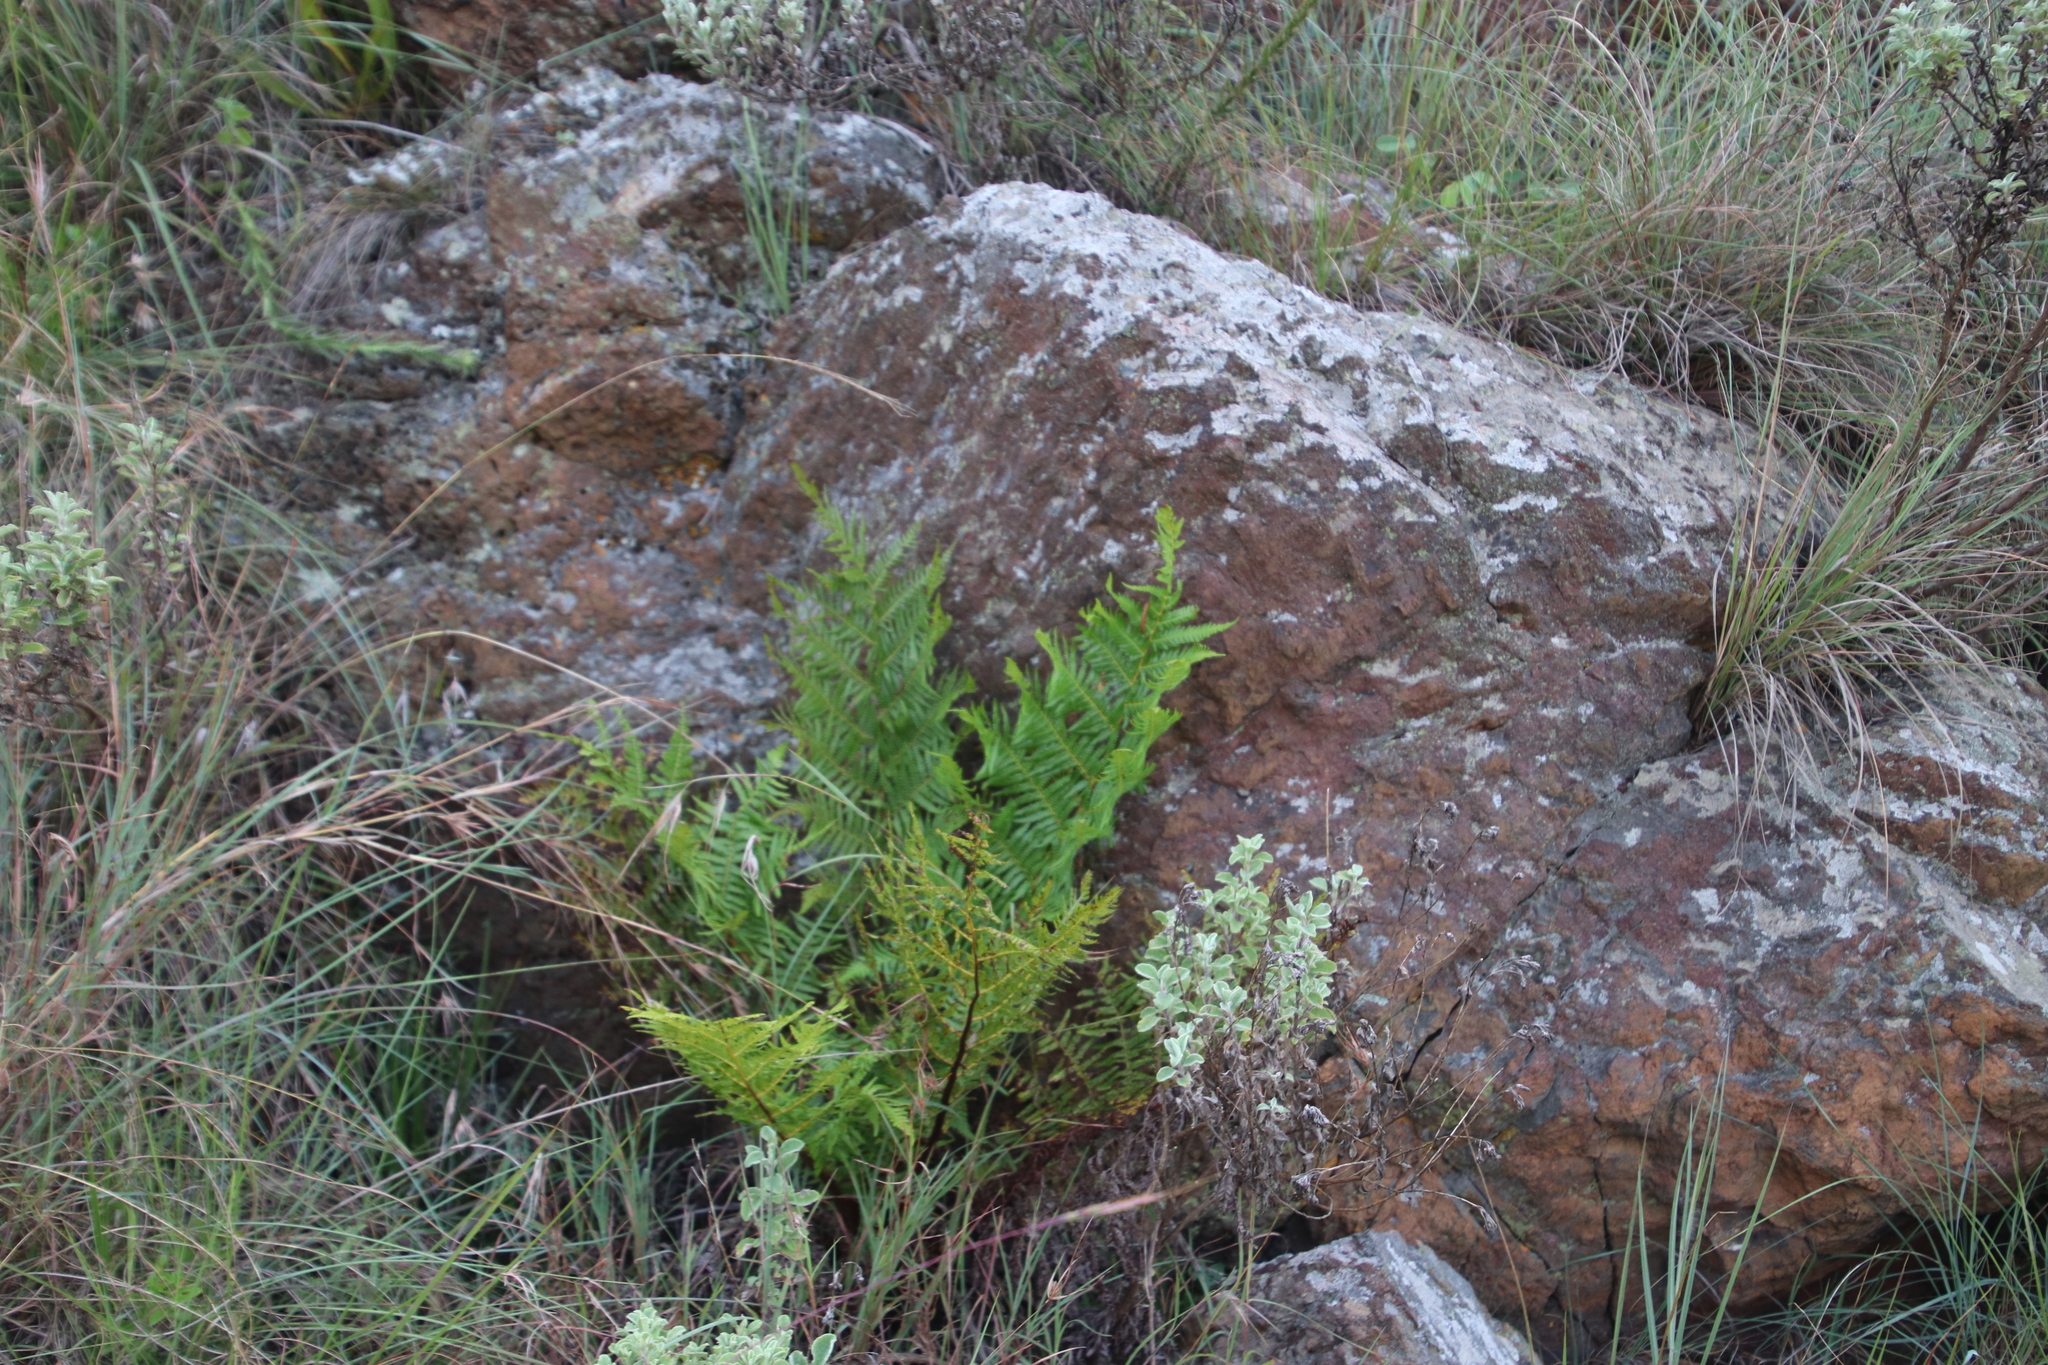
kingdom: Plantae
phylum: Tracheophyta
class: Polypodiopsida
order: Cyatheales
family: Cyatheaceae
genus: Alsophila
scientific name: Alsophila dregei
